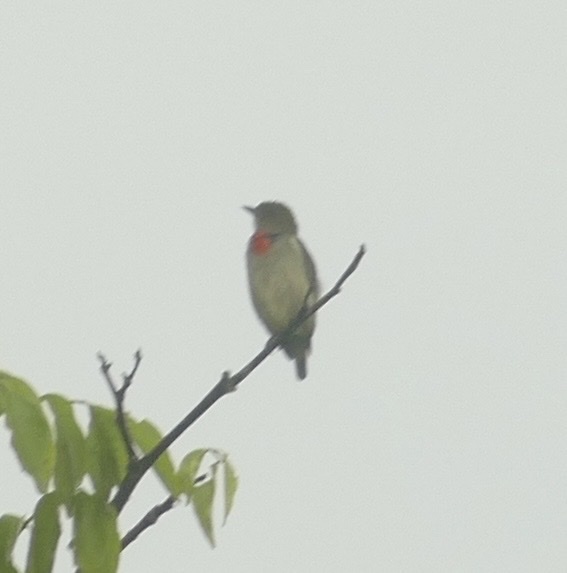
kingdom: Animalia
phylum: Chordata
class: Aves
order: Passeriformes
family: Dicaeidae
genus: Dicaeum
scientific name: Dicaeum pectorale
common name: Olive-crowned flowerpecker
